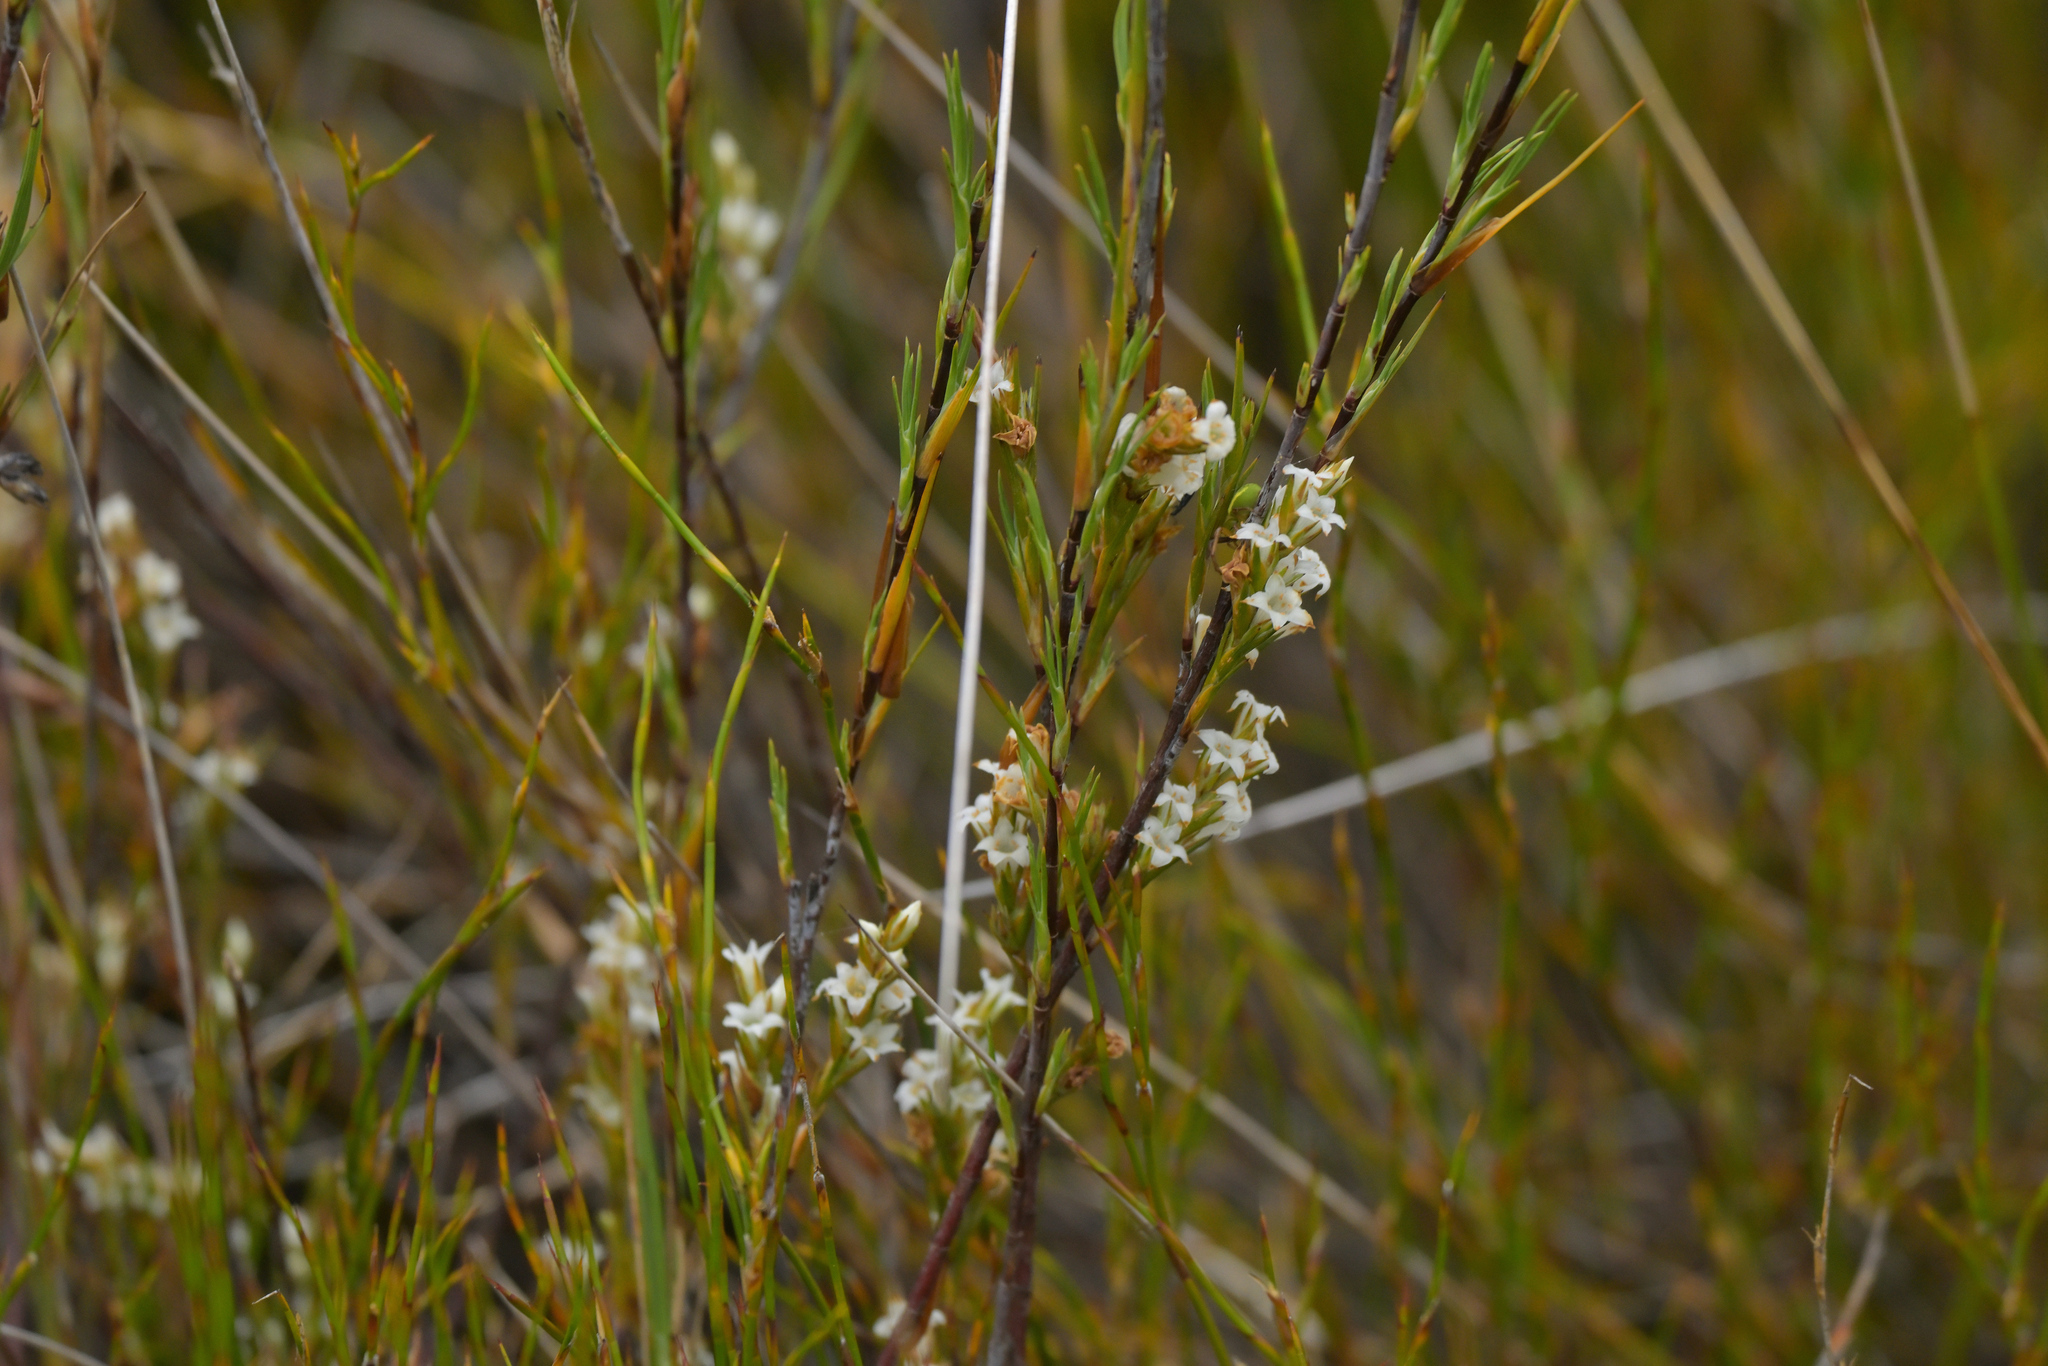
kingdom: Plantae
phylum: Tracheophyta
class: Magnoliopsida
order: Ericales
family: Ericaceae
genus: Dracophyllum
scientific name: Dracophyllum subulatum
